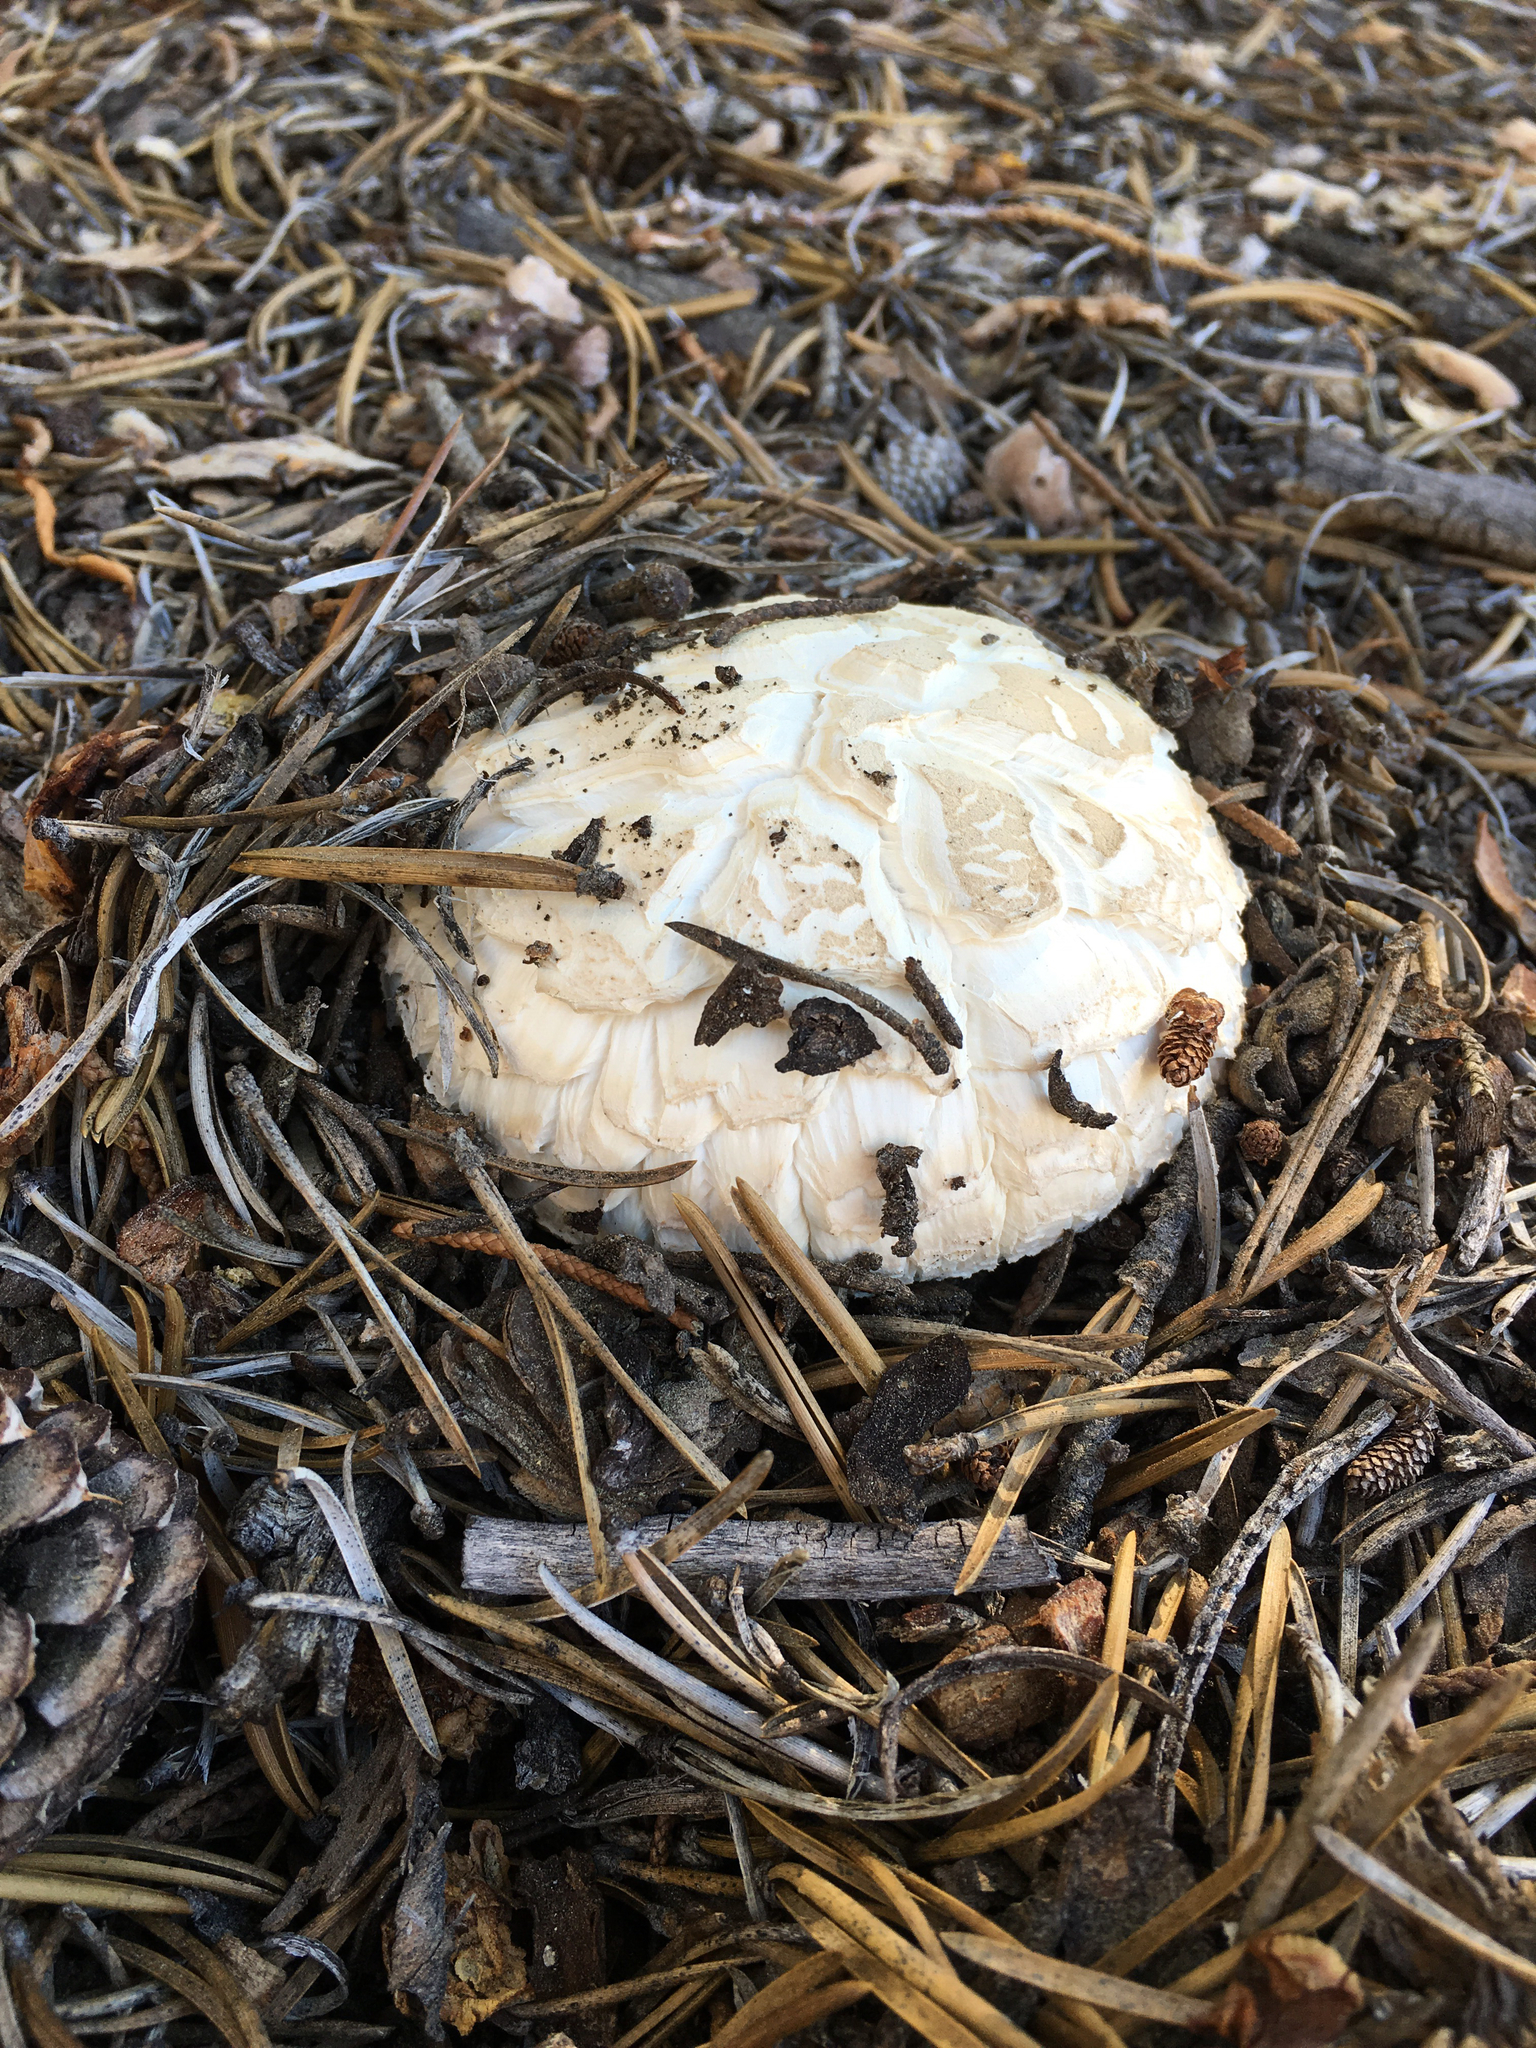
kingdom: Fungi
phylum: Basidiomycota
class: Agaricomycetes
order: Gloeophyllales
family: Gloeophyllaceae
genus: Neolentinus
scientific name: Neolentinus ponderosus
